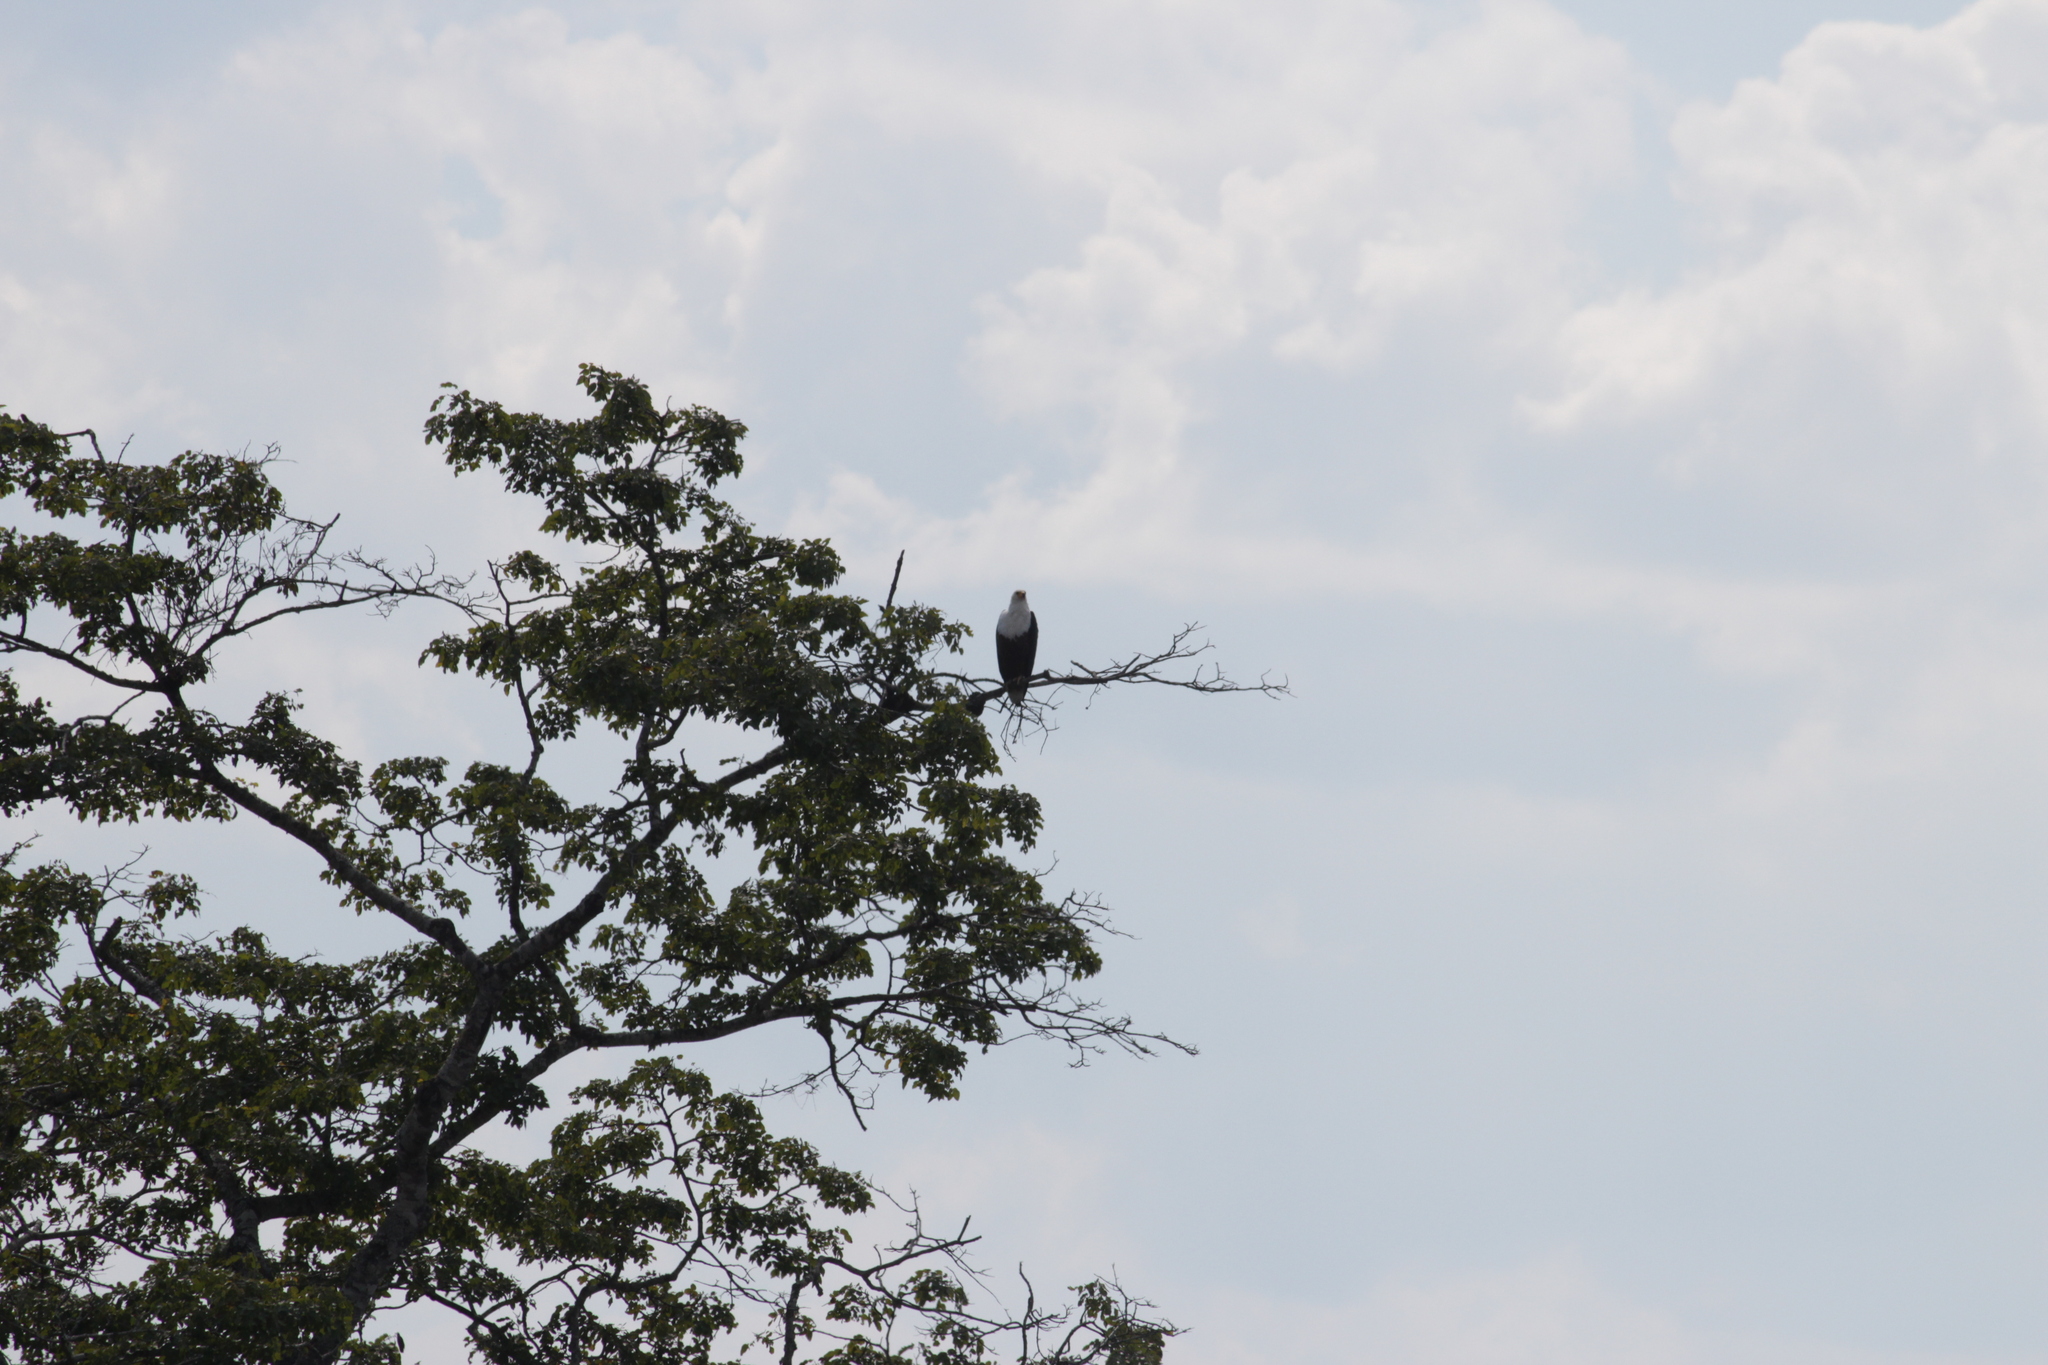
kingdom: Animalia
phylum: Chordata
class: Aves
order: Accipitriformes
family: Accipitridae
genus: Haliaeetus
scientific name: Haliaeetus vocifer
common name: African fish eagle
